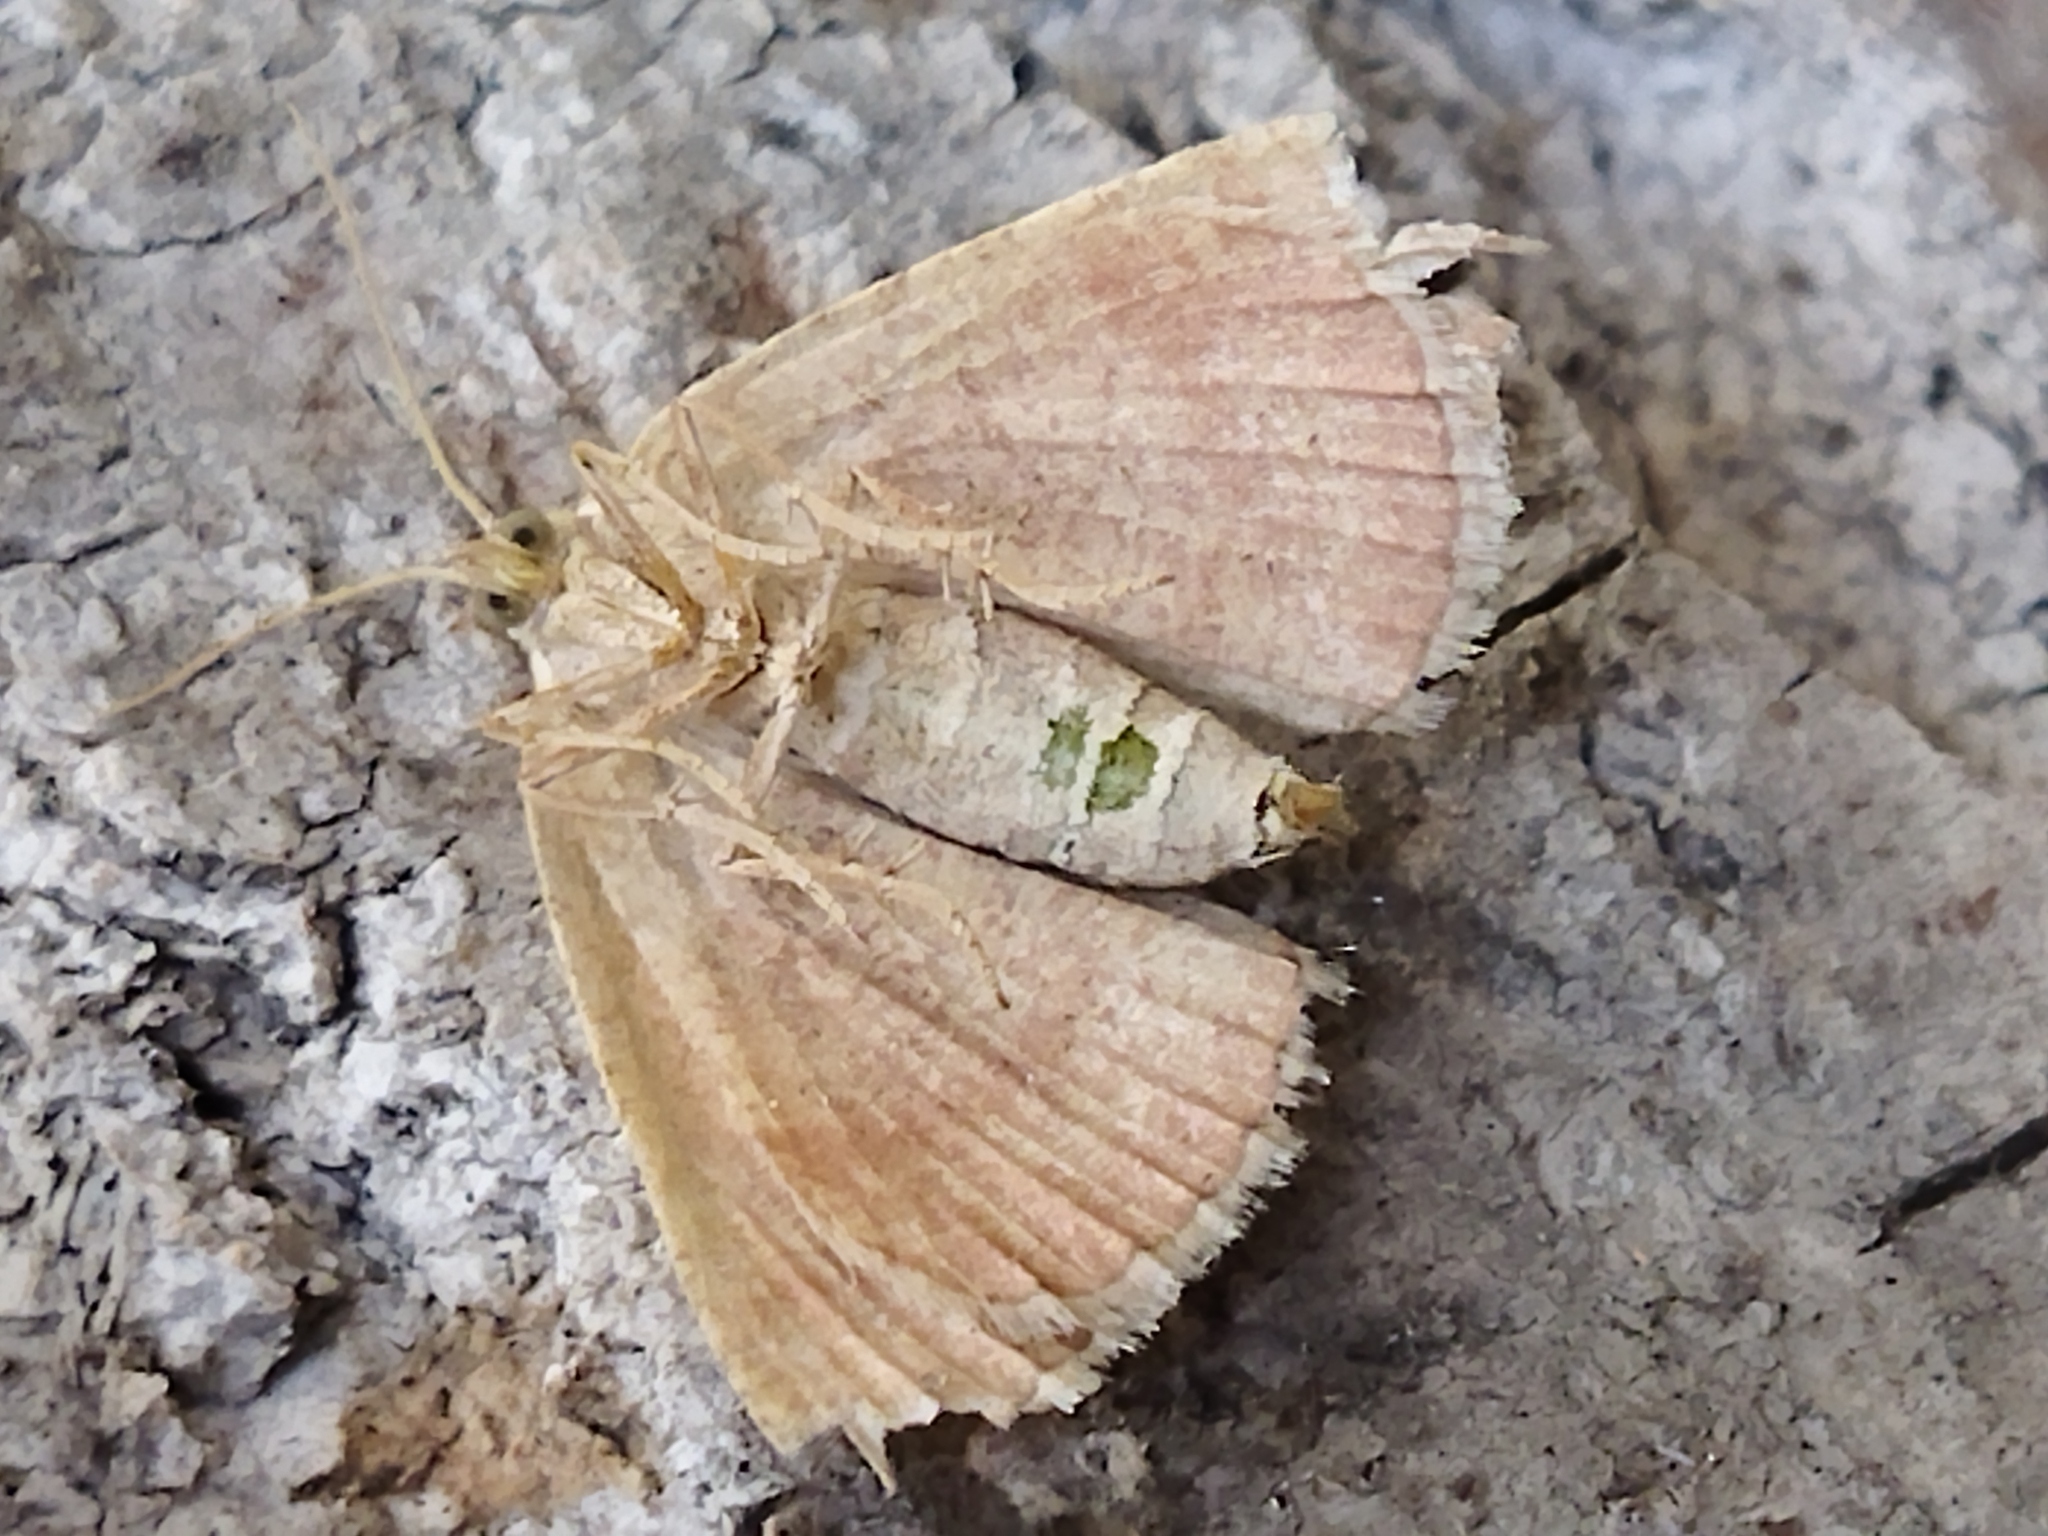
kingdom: Animalia
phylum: Arthropoda
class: Insecta
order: Lepidoptera
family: Geometridae
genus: Aplasta
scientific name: Aplasta ononaria
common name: Rest harrow
